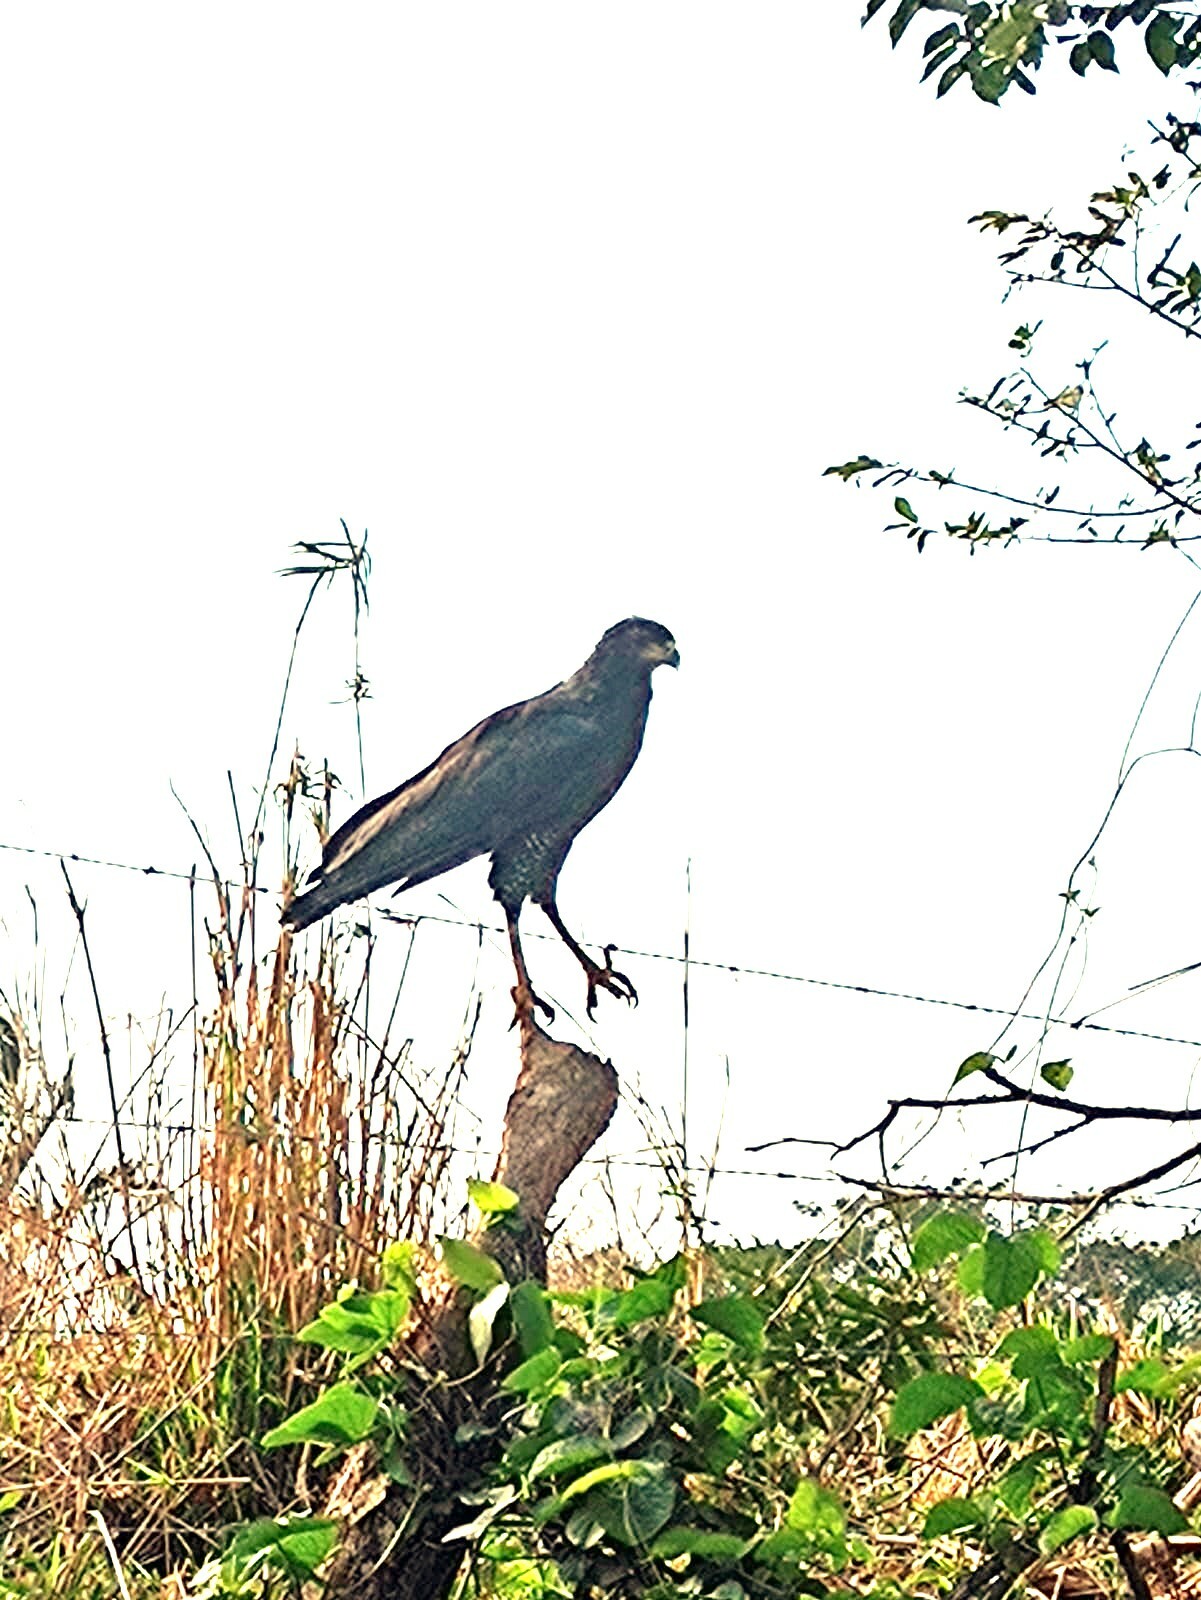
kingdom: Animalia
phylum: Chordata
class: Aves
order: Accipitriformes
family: Accipitridae
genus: Buteogallus
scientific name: Buteogallus urubitinga
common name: Great black hawk
